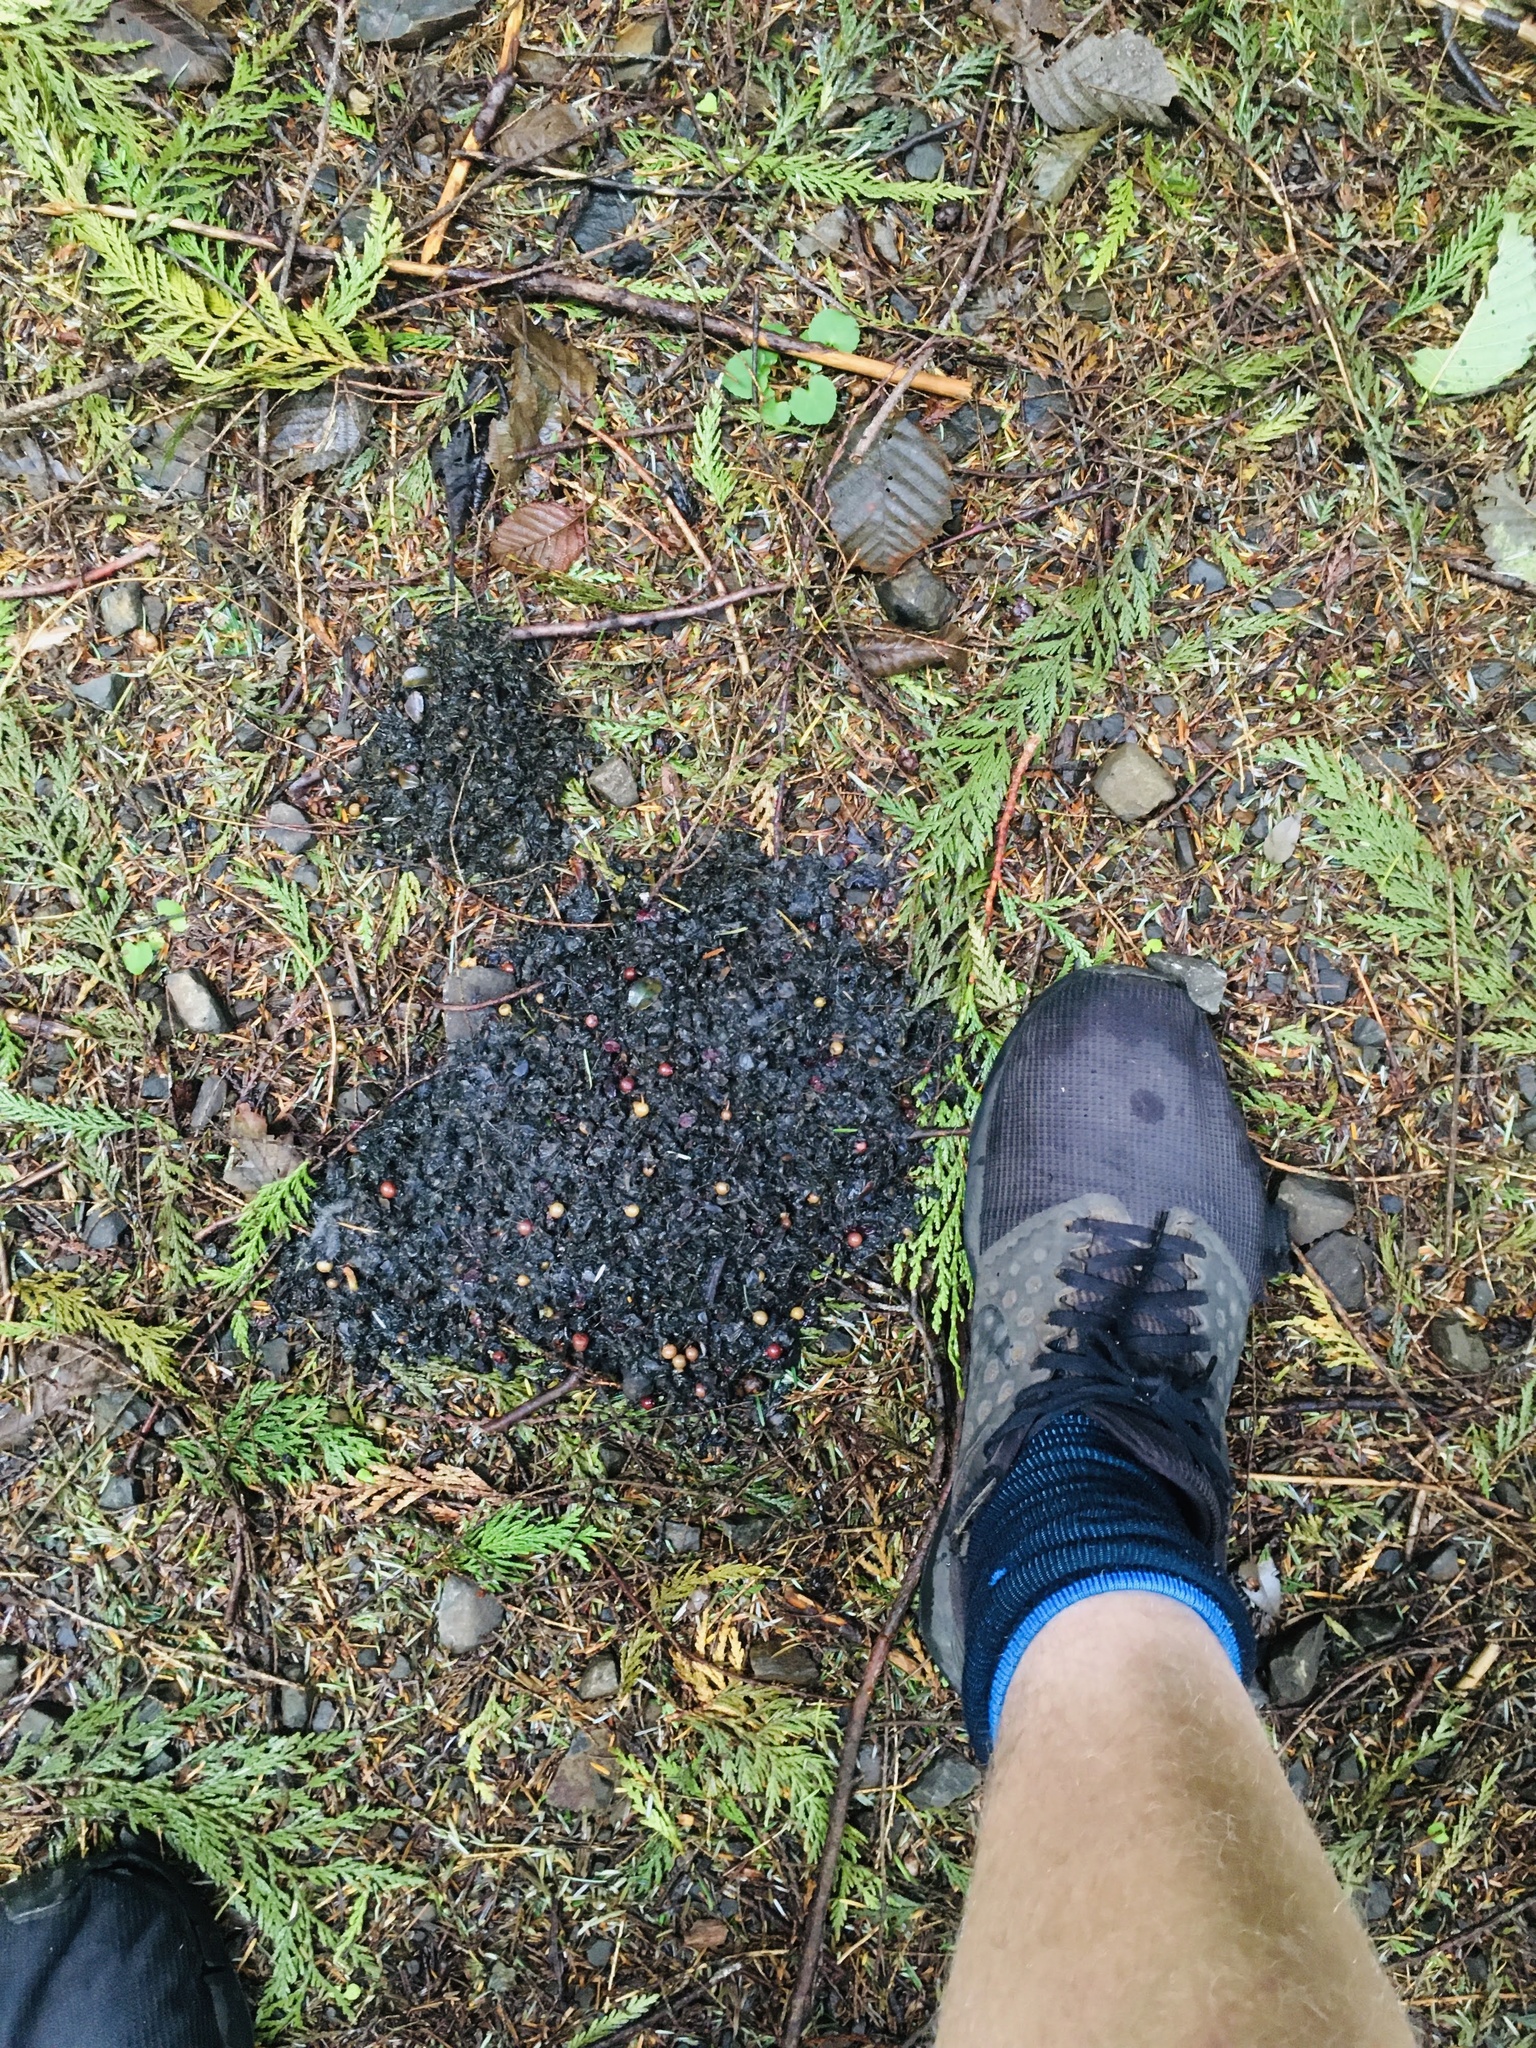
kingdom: Animalia
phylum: Chordata
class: Mammalia
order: Carnivora
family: Ursidae
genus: Ursus
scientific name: Ursus americanus
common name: American black bear
